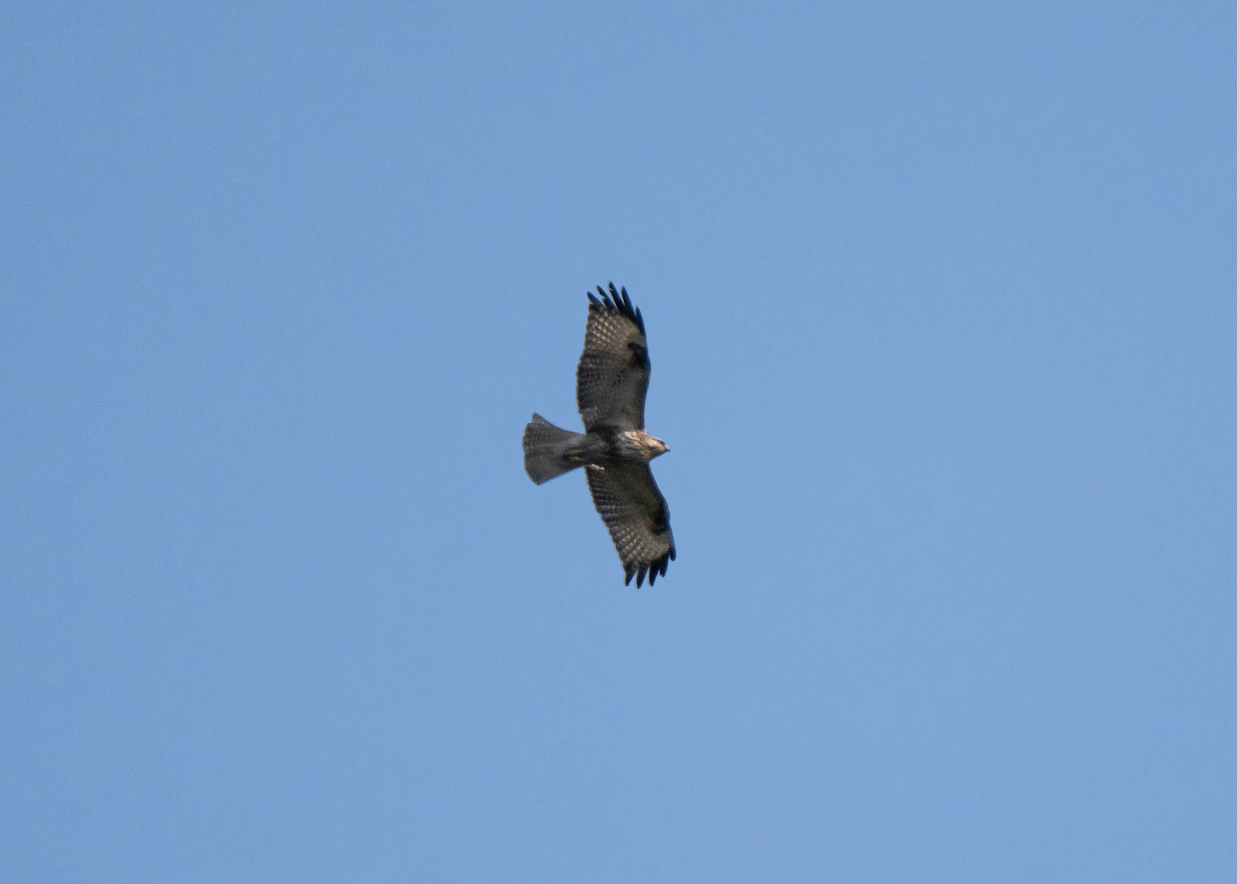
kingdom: Animalia
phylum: Chordata
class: Aves
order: Accipitriformes
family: Accipitridae
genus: Buteo
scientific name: Buteo japonicus
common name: Eastern buzzard
